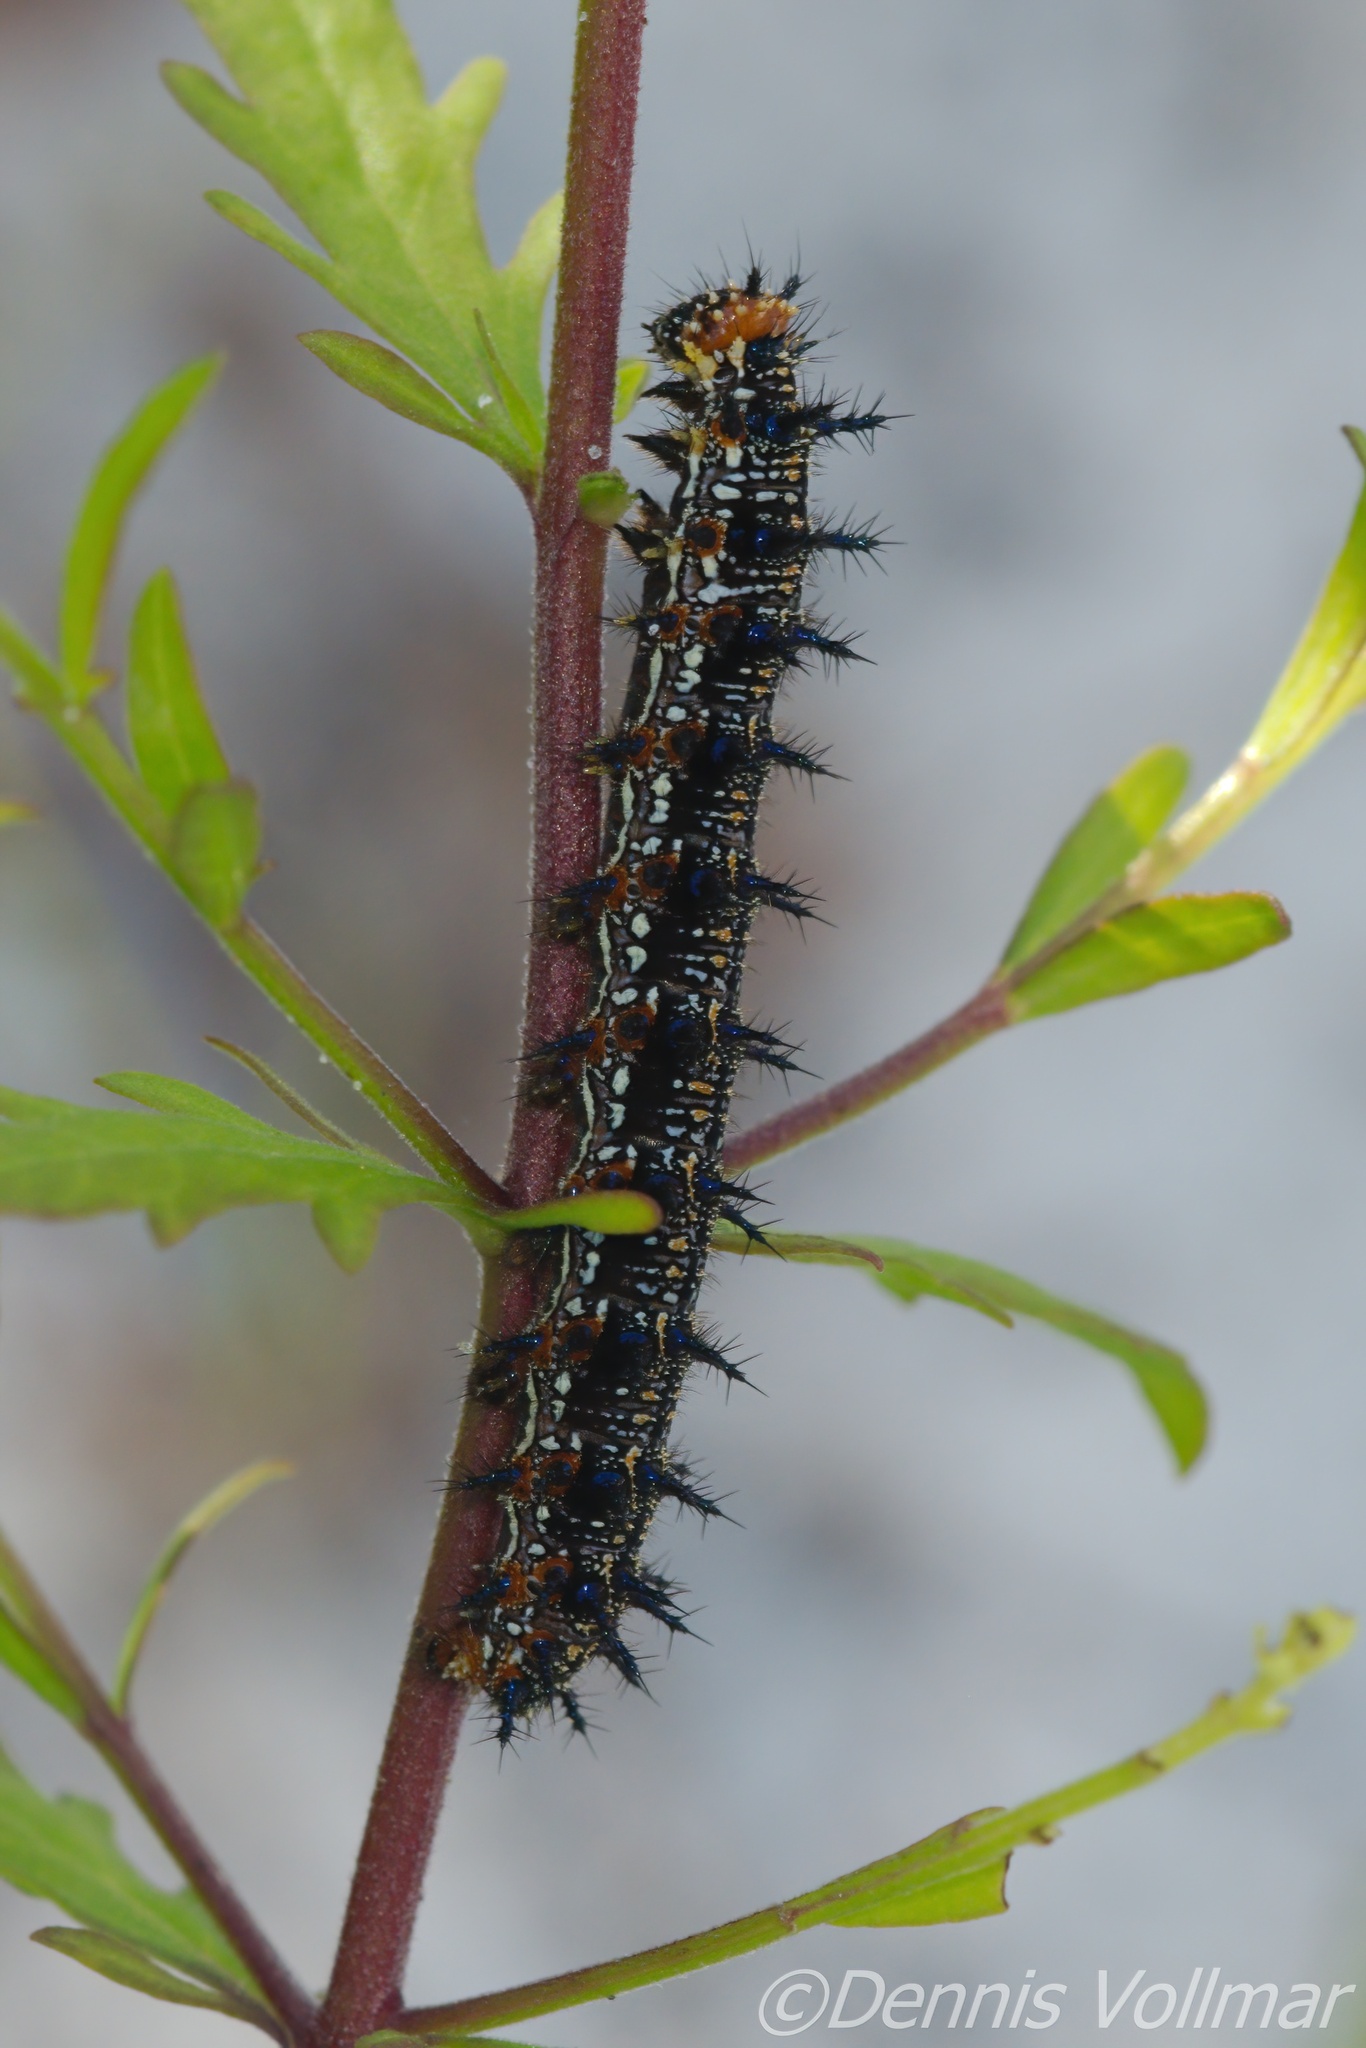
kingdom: Animalia
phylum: Arthropoda
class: Insecta
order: Lepidoptera
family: Nymphalidae
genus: Junonia
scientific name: Junonia coenia
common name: Common buckeye
